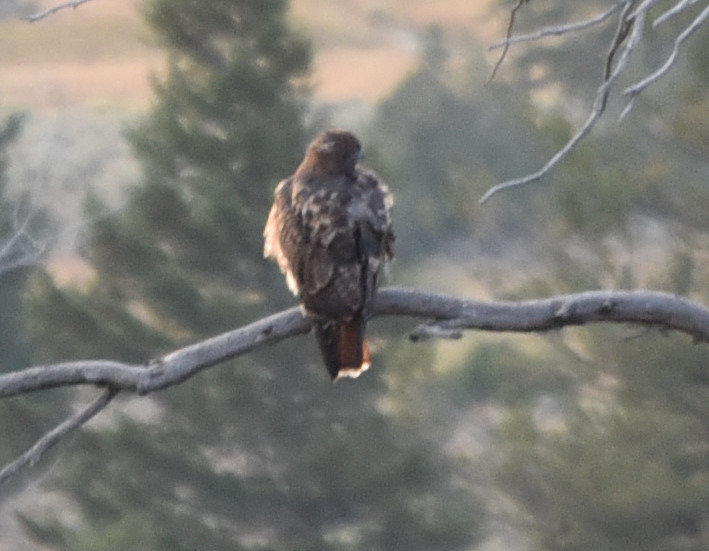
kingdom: Animalia
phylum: Chordata
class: Aves
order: Accipitriformes
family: Accipitridae
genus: Buteo
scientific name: Buteo jamaicensis
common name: Red-tailed hawk
